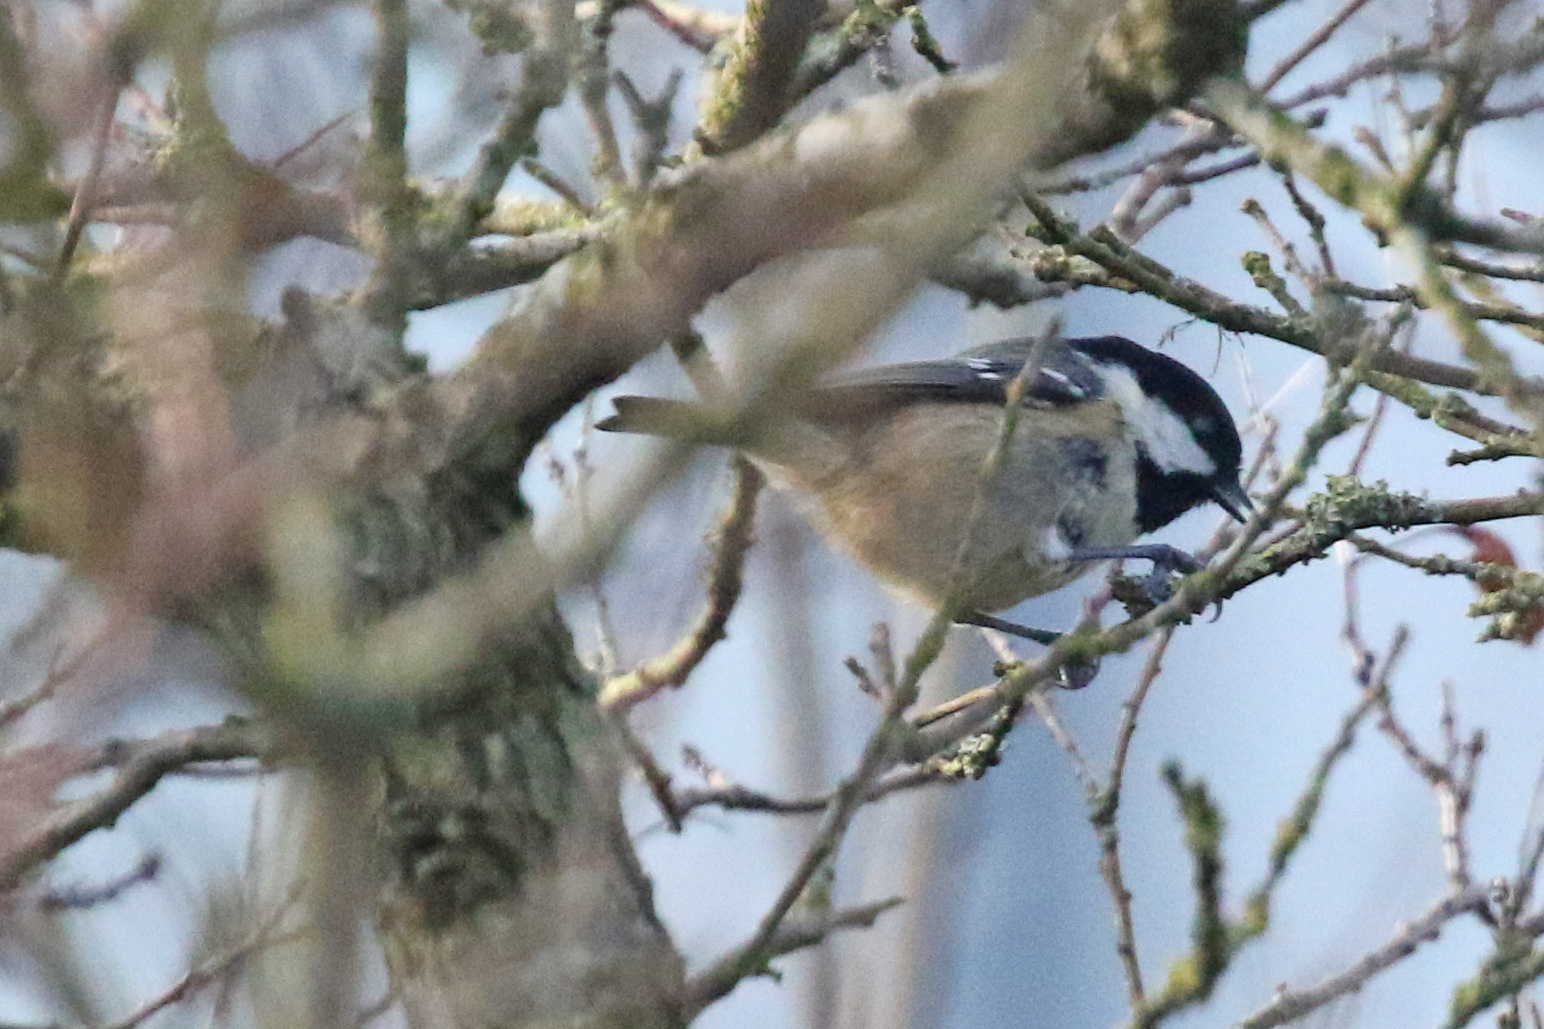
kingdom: Animalia
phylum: Chordata
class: Aves
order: Passeriformes
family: Paridae
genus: Periparus
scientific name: Periparus ater
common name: Coal tit
